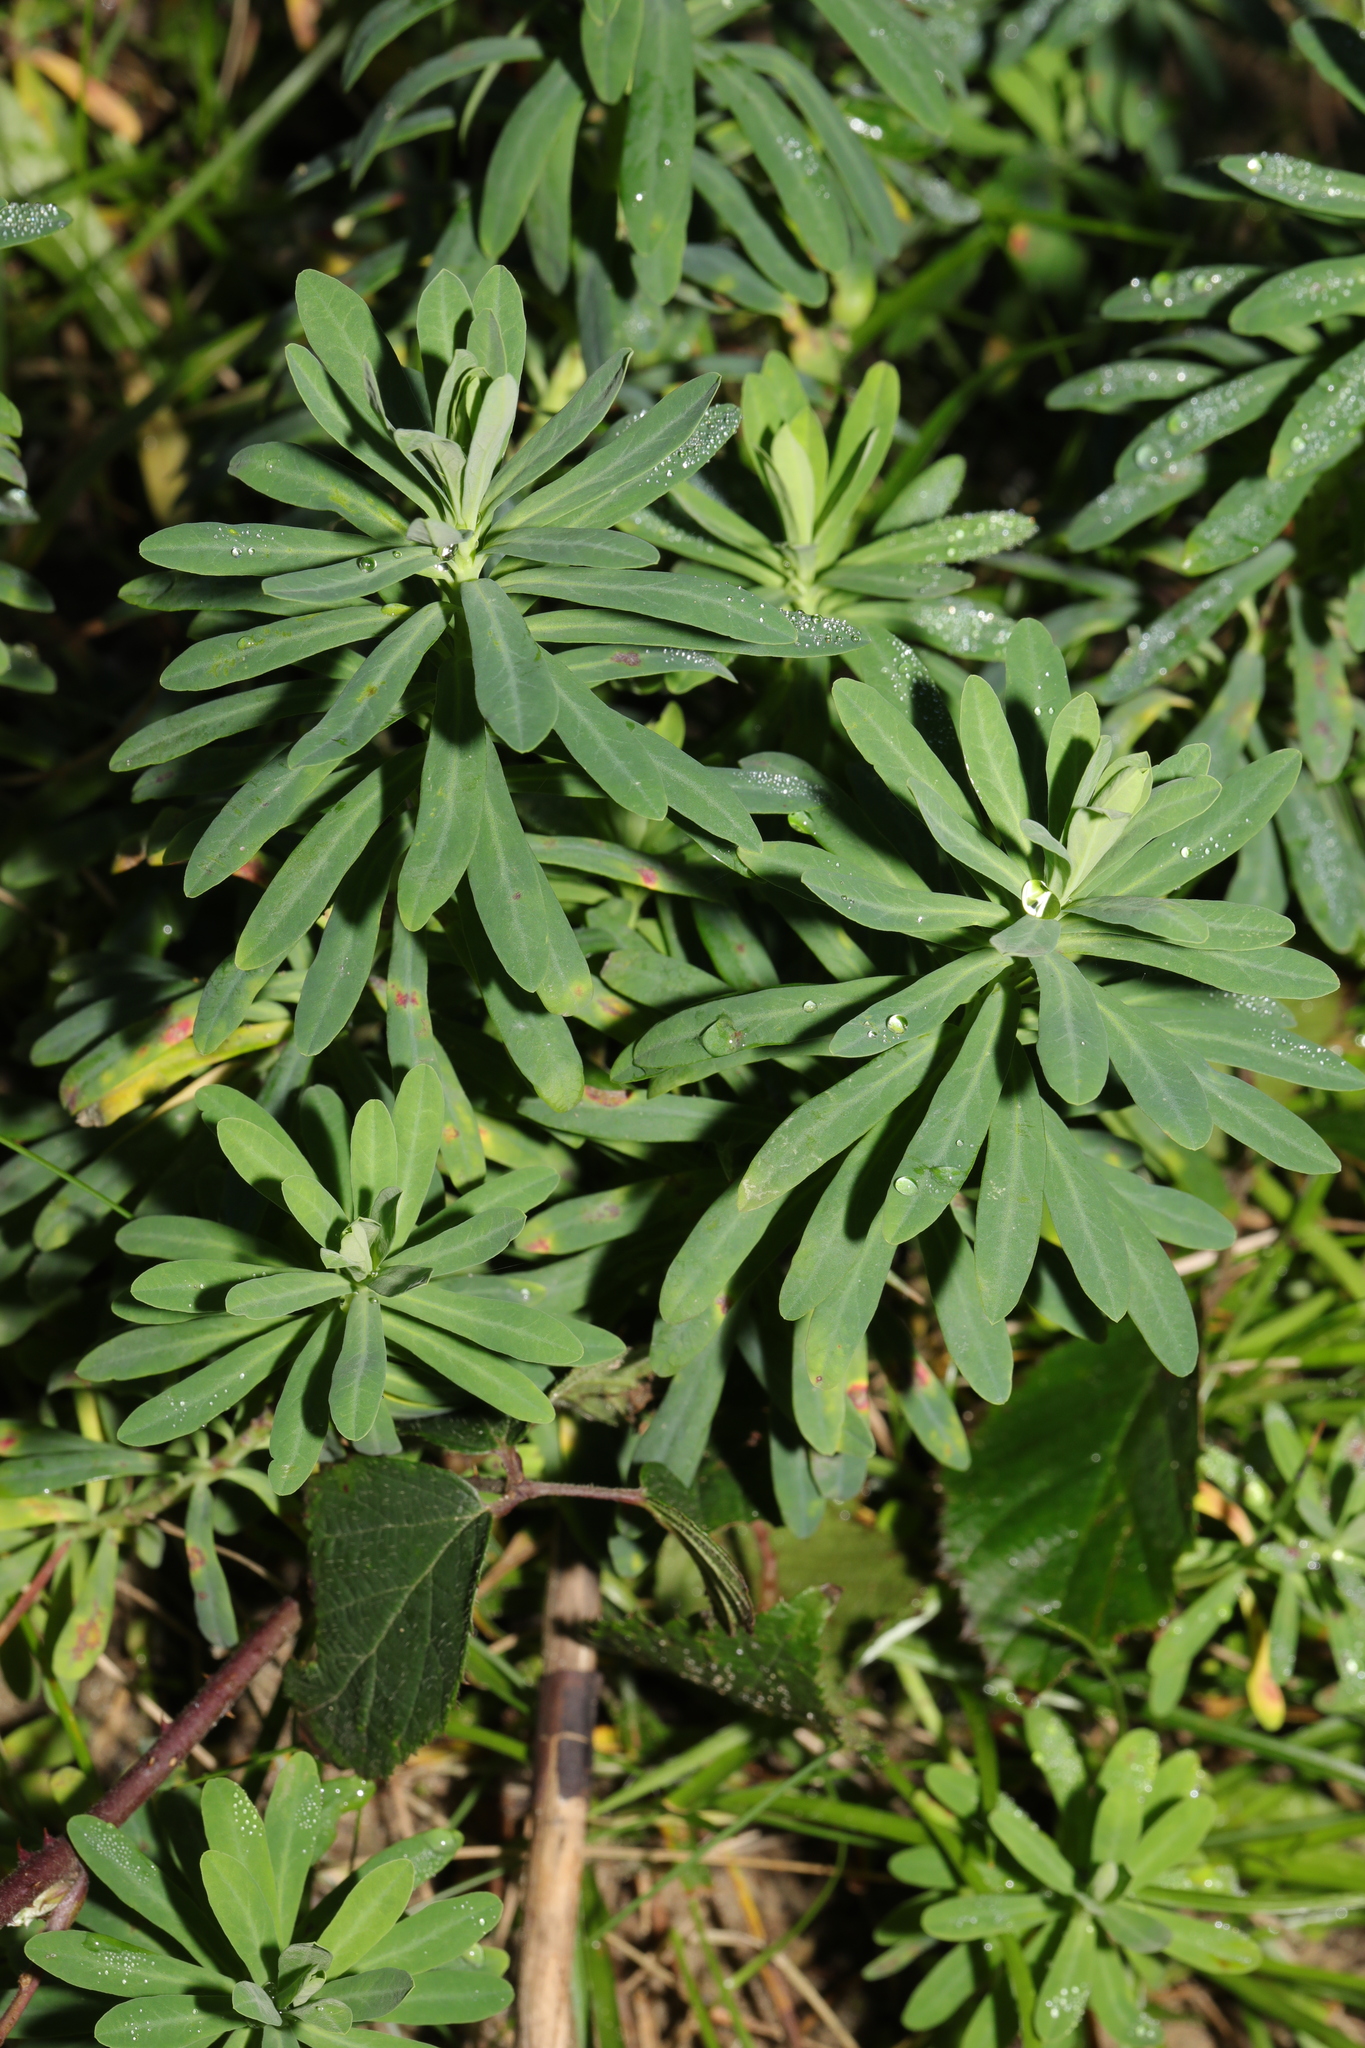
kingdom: Plantae
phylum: Tracheophyta
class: Magnoliopsida
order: Malpighiales
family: Euphorbiaceae
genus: Euphorbia
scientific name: Euphorbia portlandica
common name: Portland spurge
